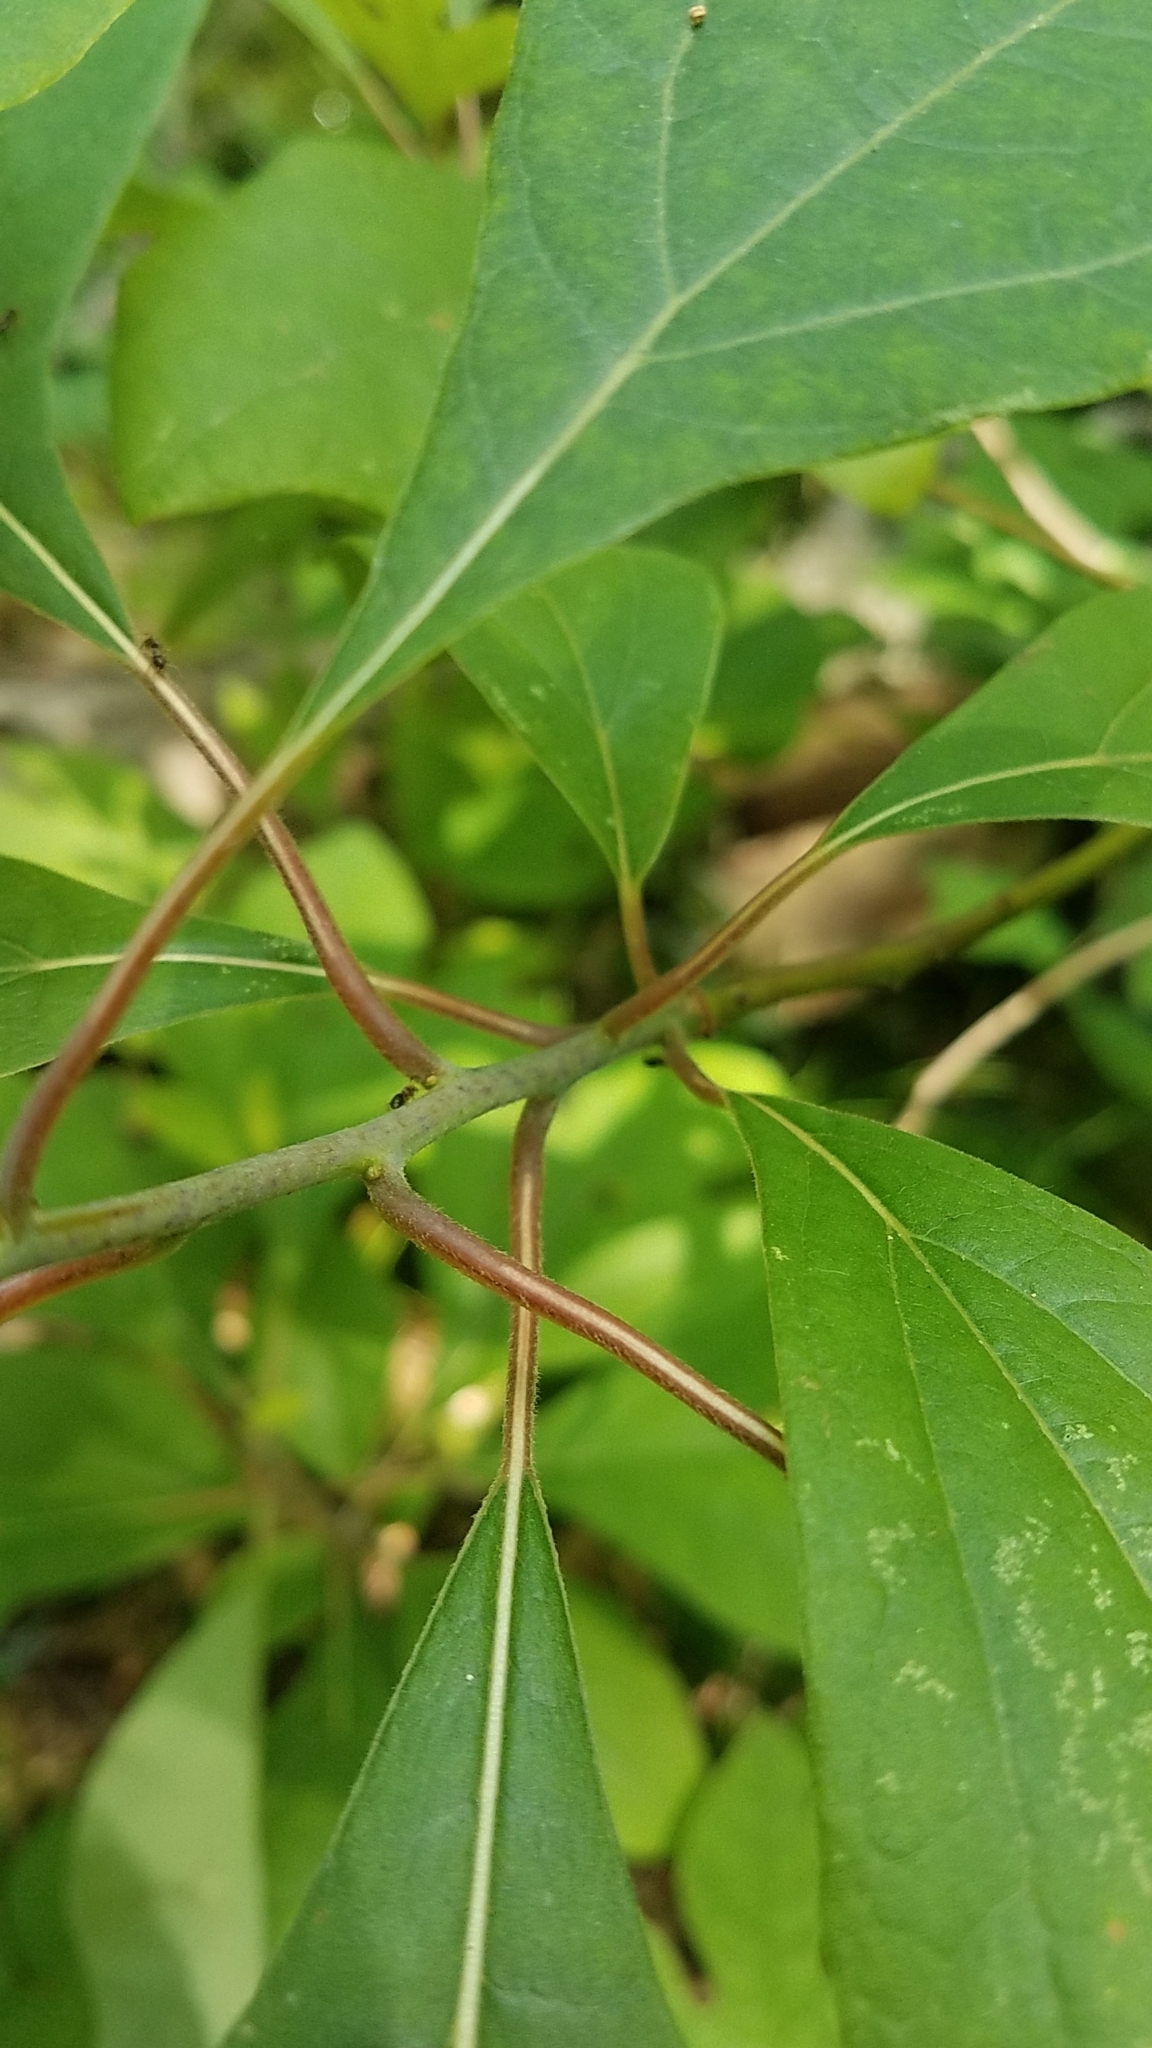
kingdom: Plantae
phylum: Tracheophyta
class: Magnoliopsida
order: Laurales
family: Lauraceae
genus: Sassafras
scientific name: Sassafras albidum
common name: Sassafras
